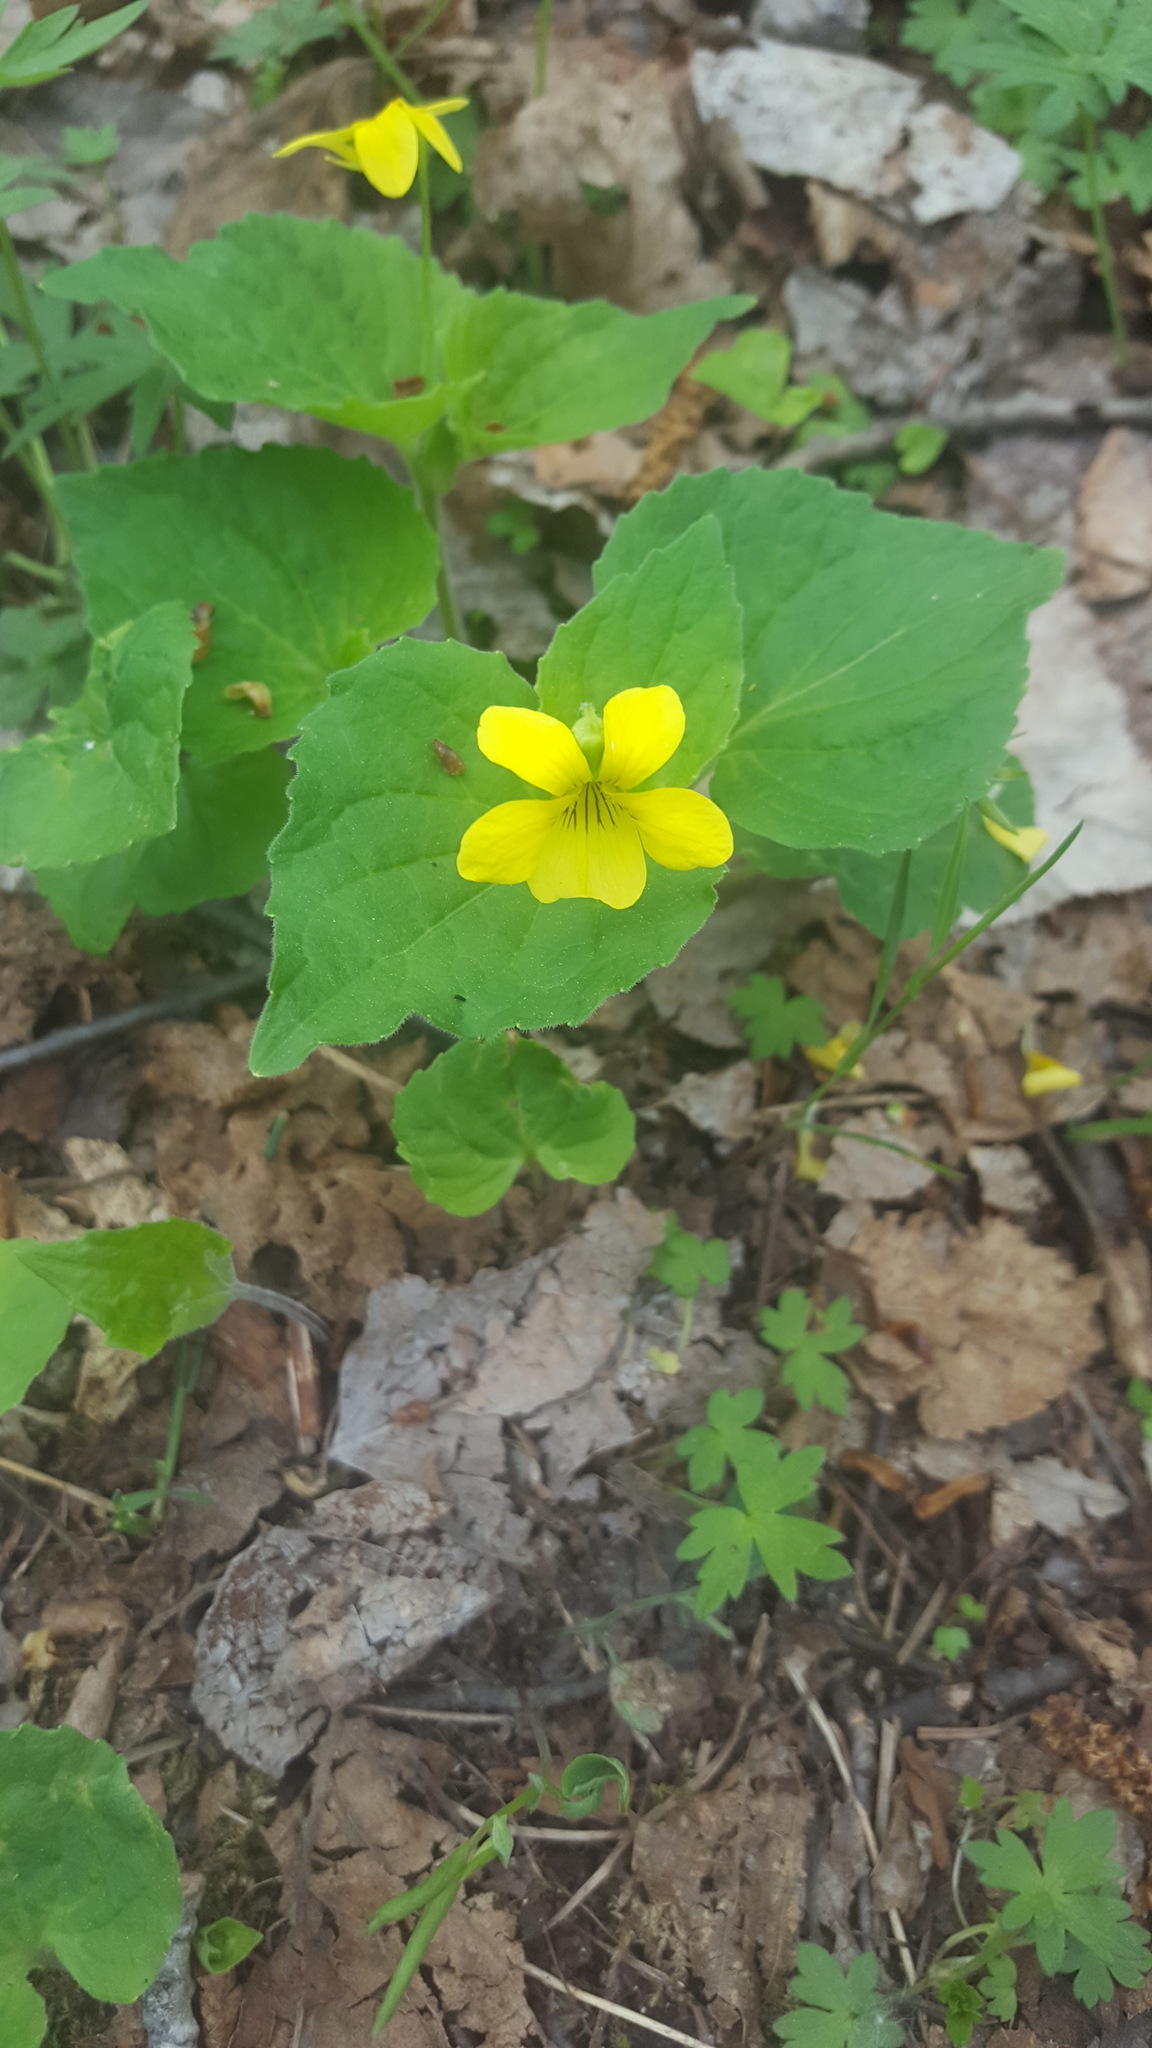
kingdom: Plantae
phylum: Tracheophyta
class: Magnoliopsida
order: Malpighiales
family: Violaceae
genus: Viola
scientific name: Viola eriocarpa
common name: Smooth yellow violet
